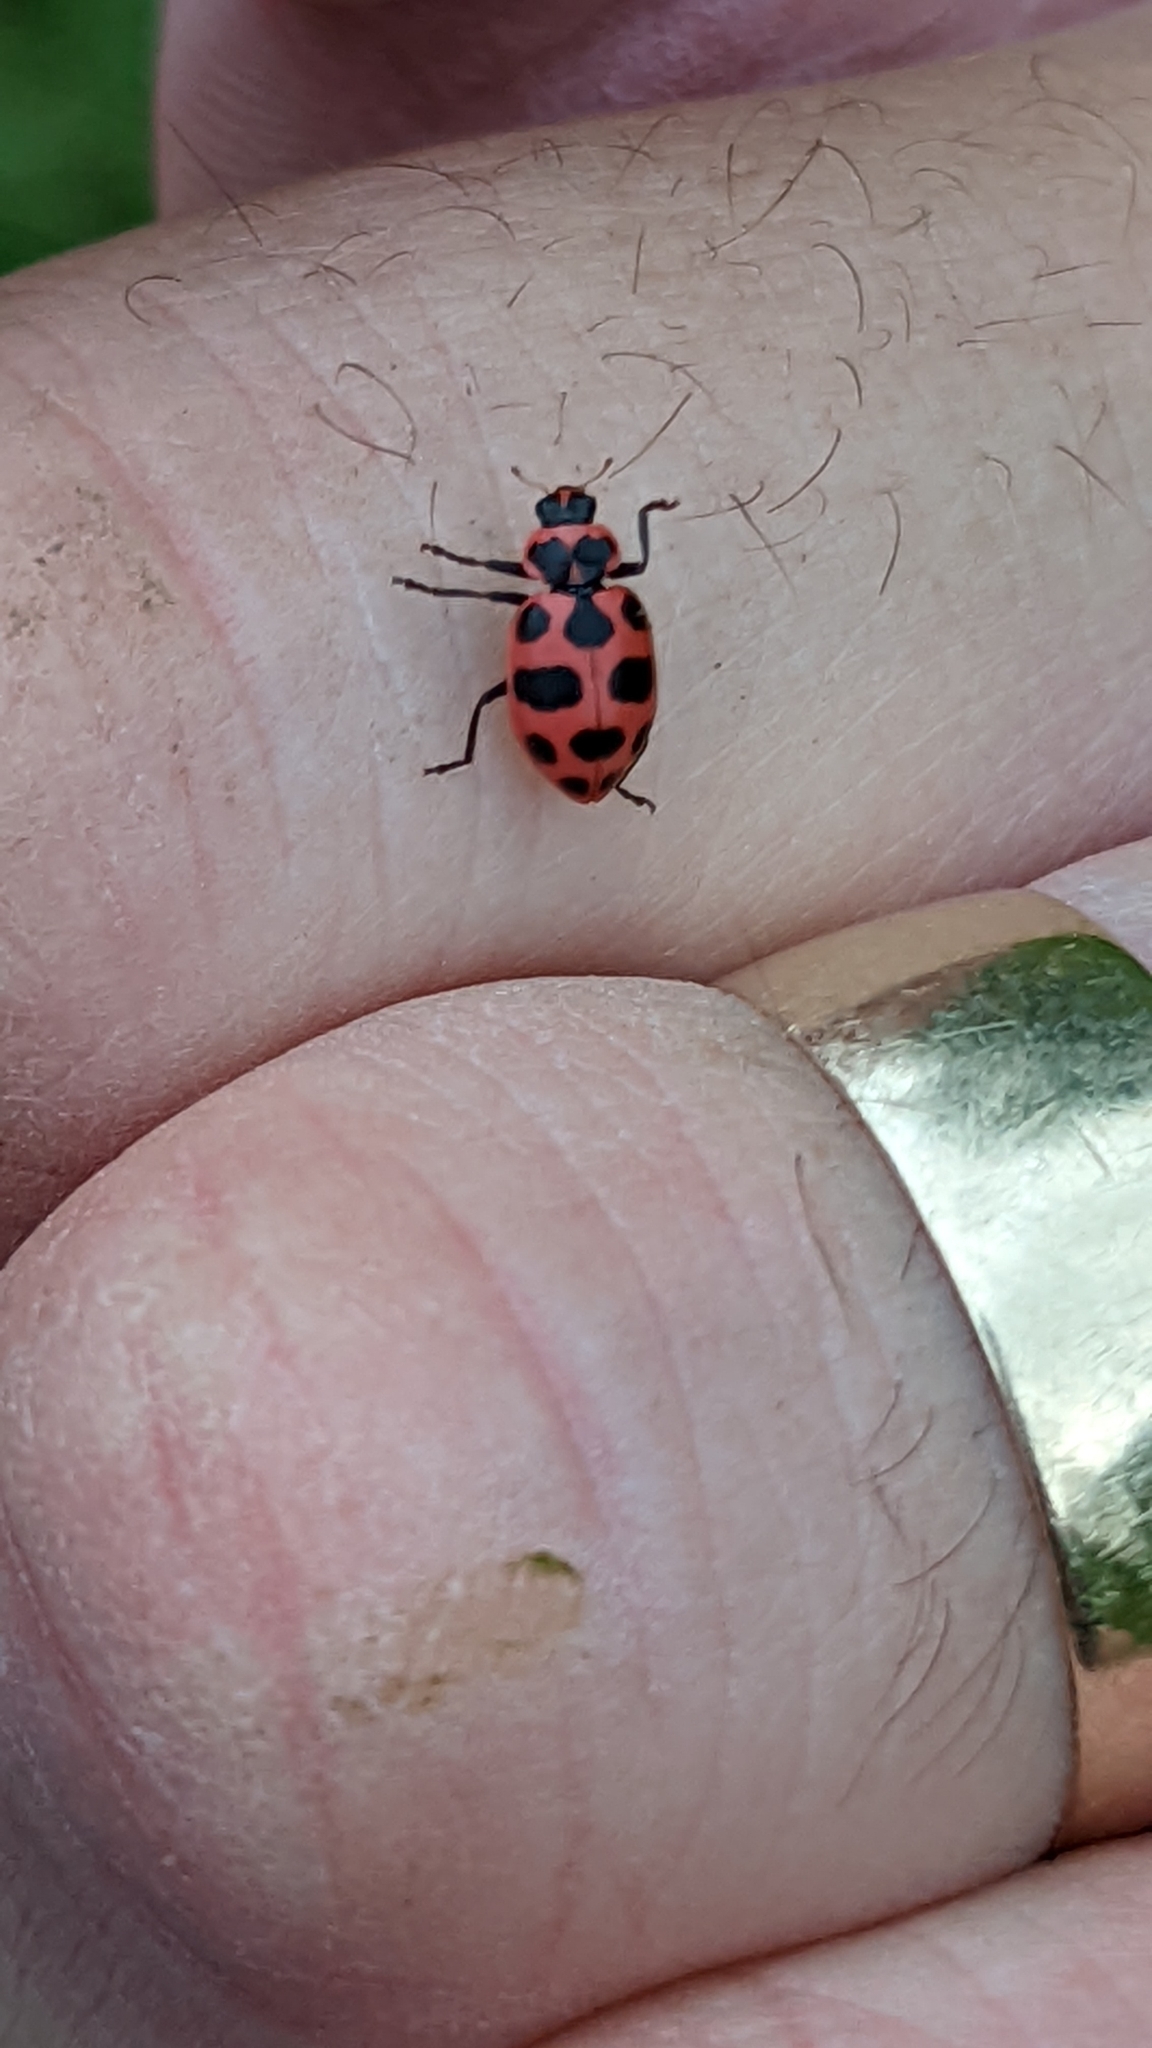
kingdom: Animalia
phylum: Arthropoda
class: Insecta
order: Coleoptera
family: Coccinellidae
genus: Coleomegilla
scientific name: Coleomegilla maculata
